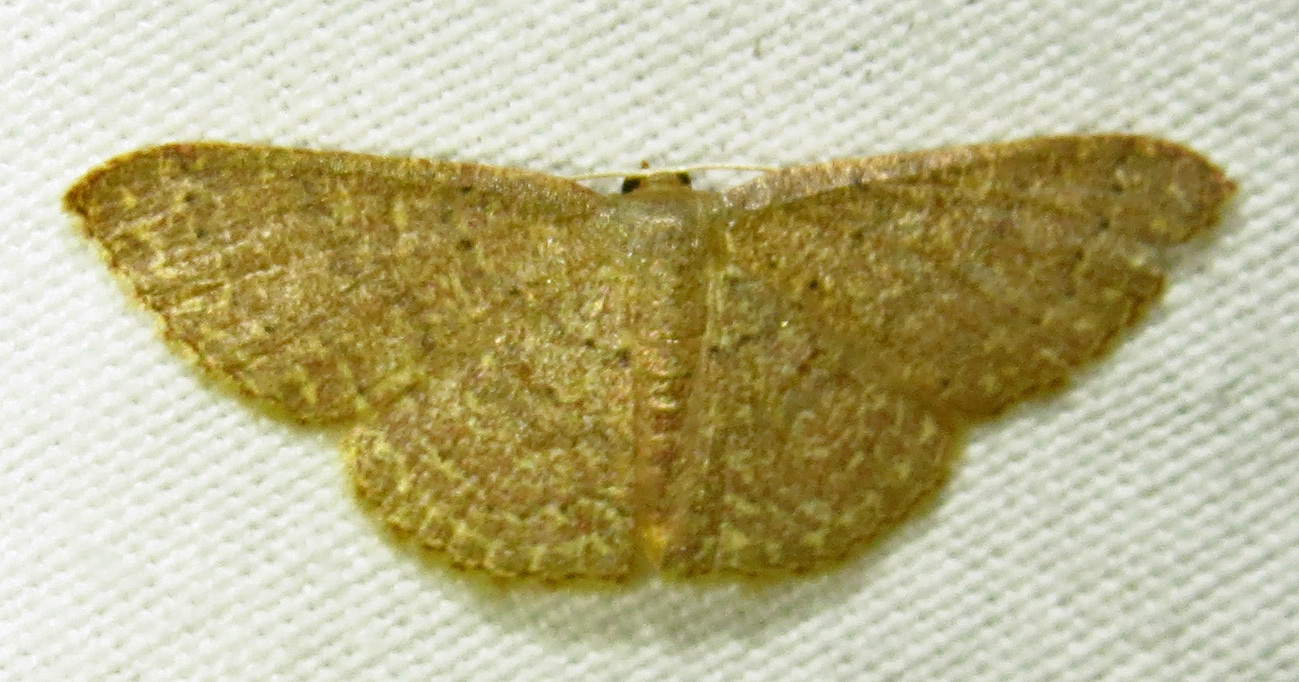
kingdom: Animalia
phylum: Arthropoda
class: Insecta
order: Lepidoptera
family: Geometridae
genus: Pleuroprucha
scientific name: Pleuroprucha insulsaria
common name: Common tan wave
